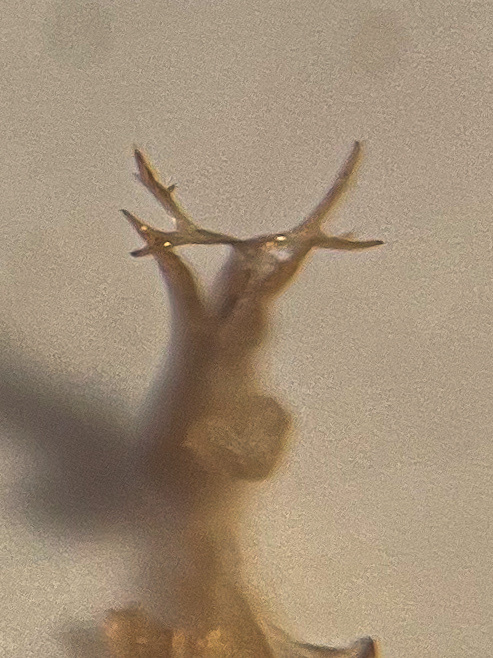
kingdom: Animalia
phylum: Arthropoda
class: Insecta
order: Hemiptera
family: Cicadellidae
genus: Ribautiana
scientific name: Ribautiana debilis
